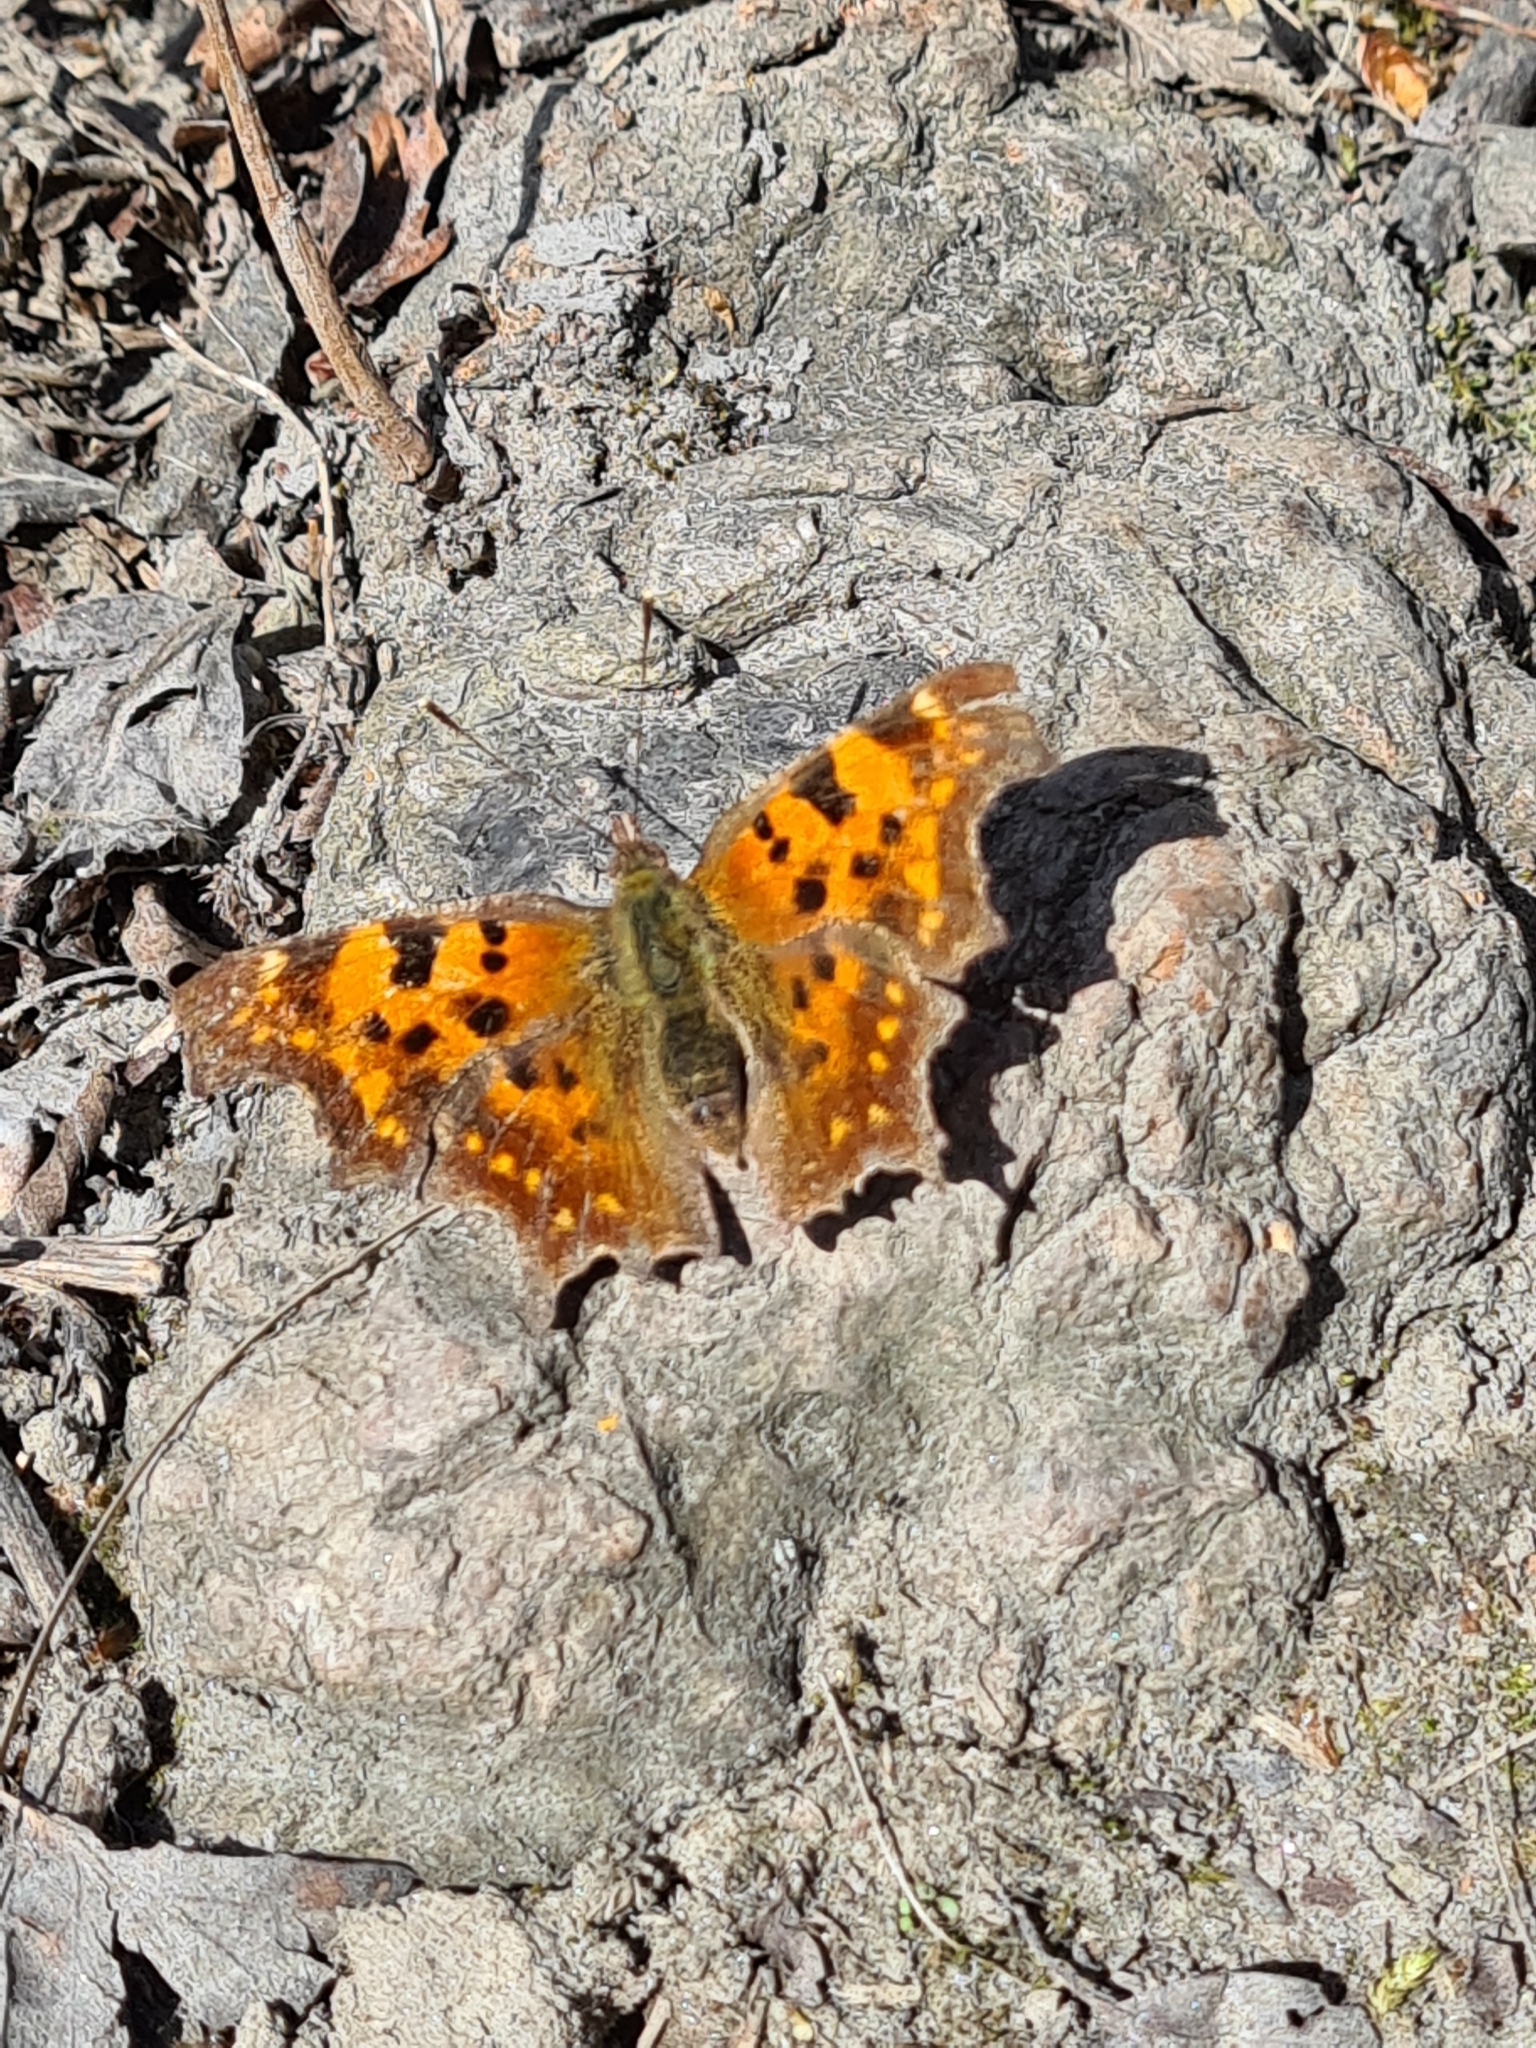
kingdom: Animalia
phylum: Arthropoda
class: Insecta
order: Lepidoptera
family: Nymphalidae
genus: Polygonia
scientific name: Polygonia c-album
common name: Comma
